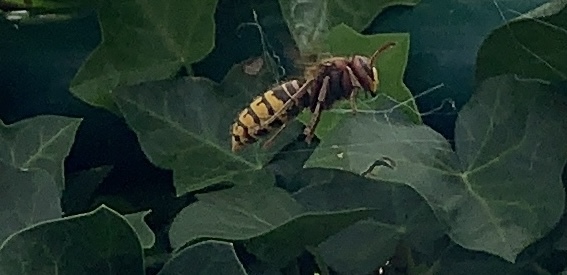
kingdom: Animalia
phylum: Arthropoda
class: Insecta
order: Hymenoptera
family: Vespidae
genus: Vespa
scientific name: Vespa crabro
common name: Hornet
